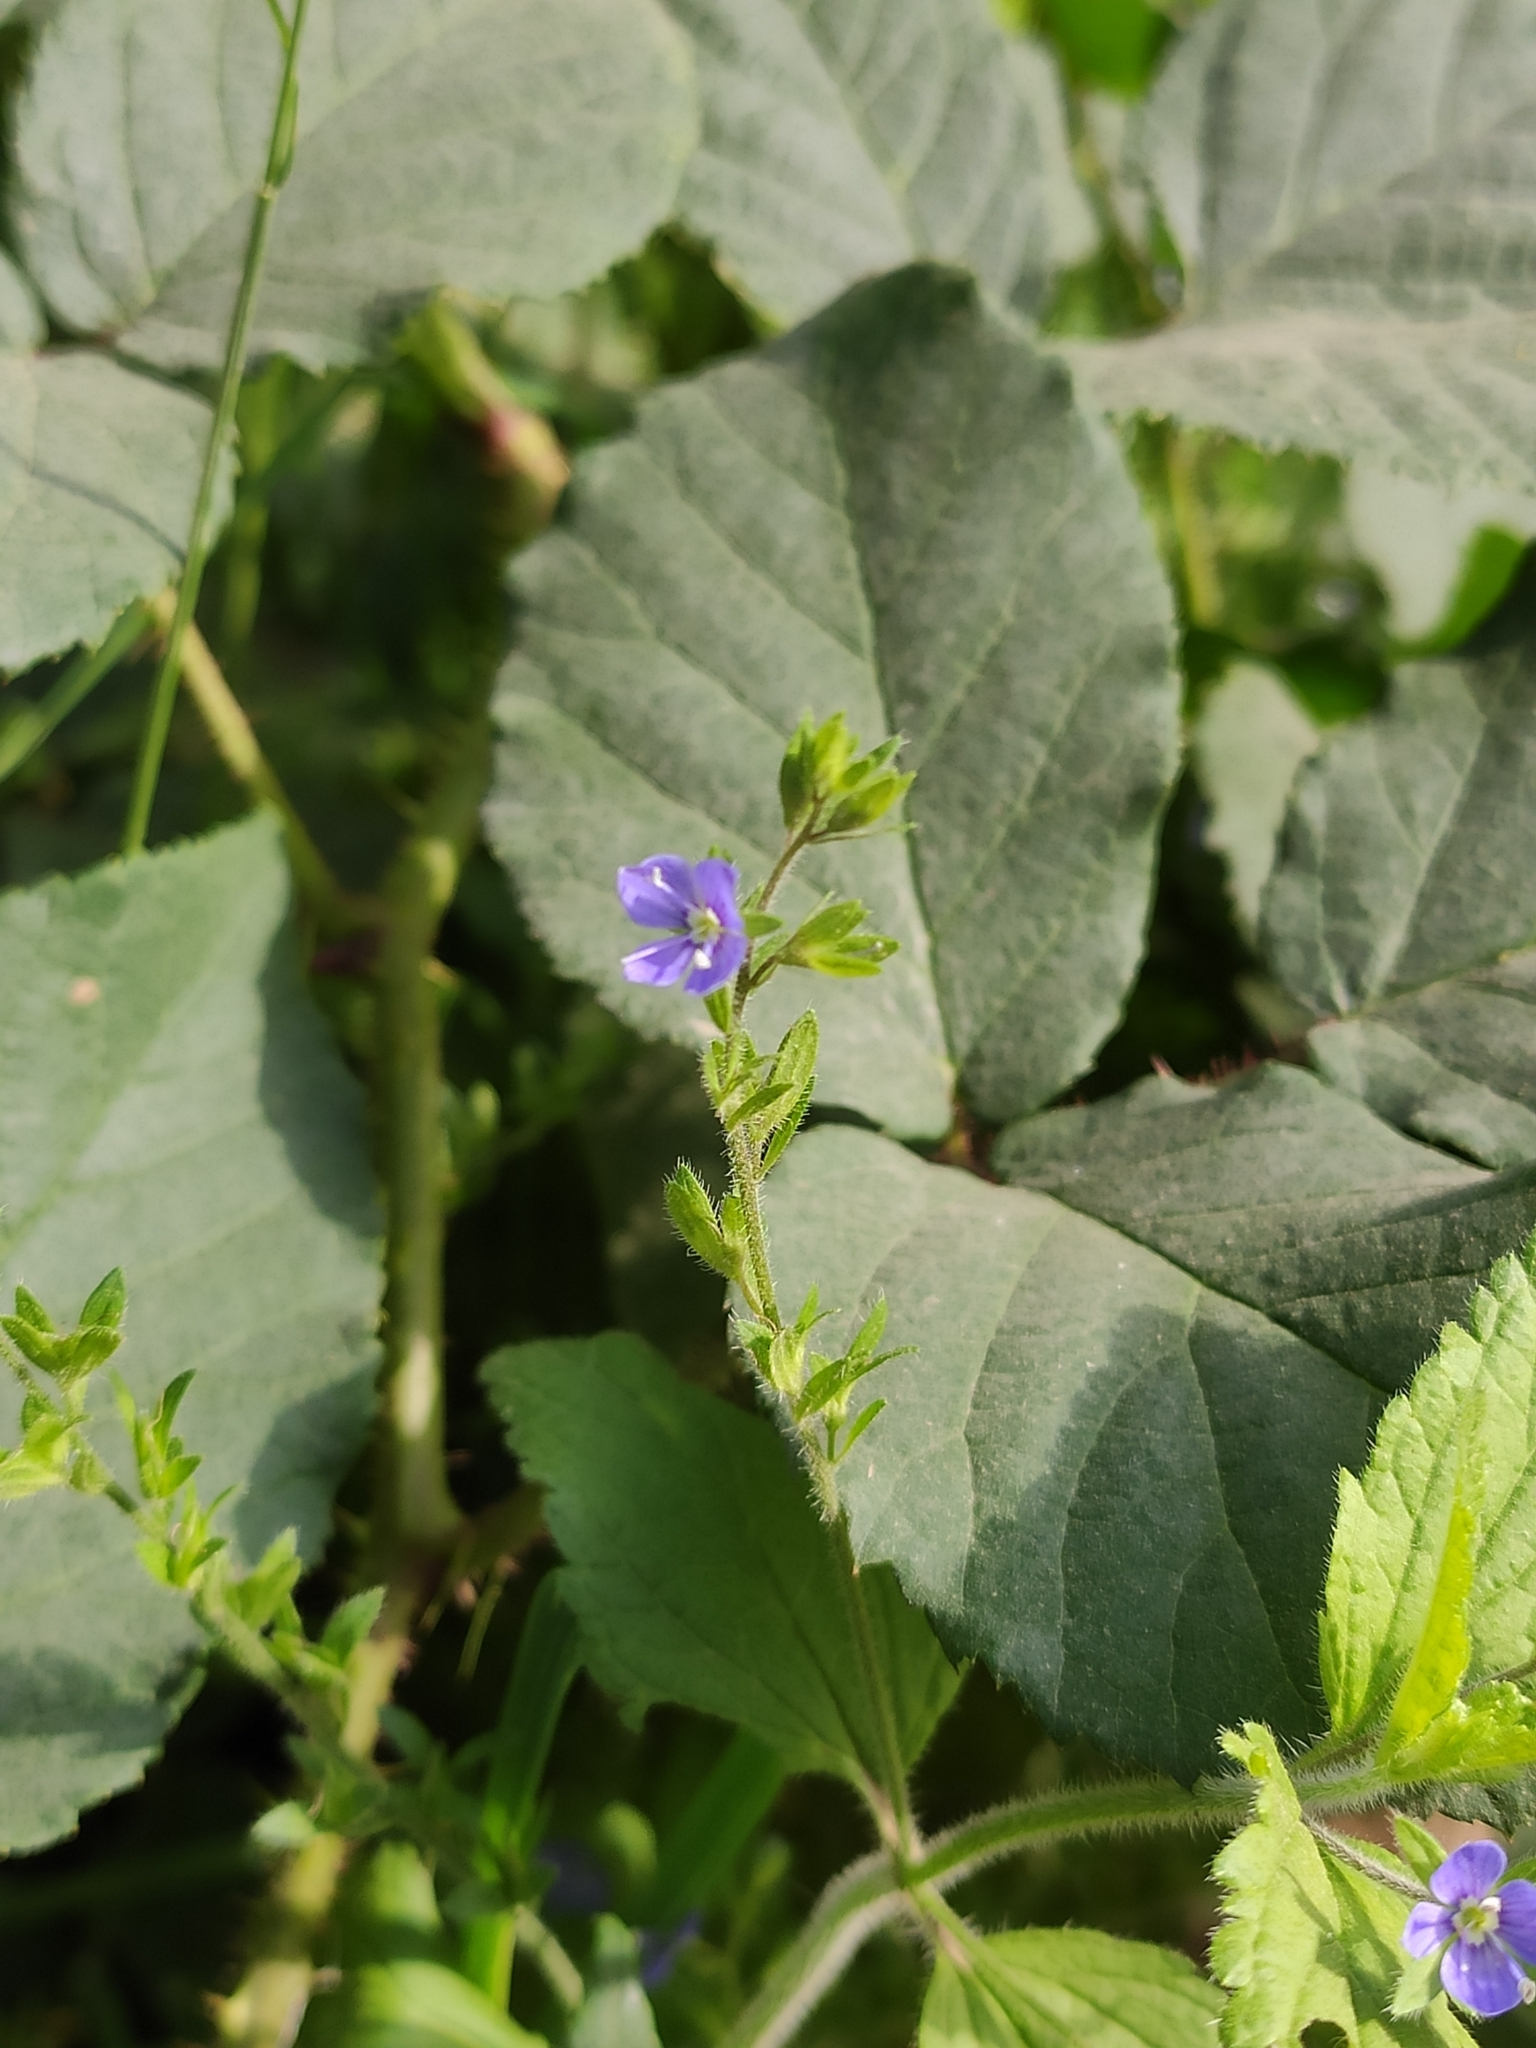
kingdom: Plantae
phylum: Tracheophyta
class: Magnoliopsida
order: Lamiales
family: Plantaginaceae
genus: Veronica
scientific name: Veronica magna
